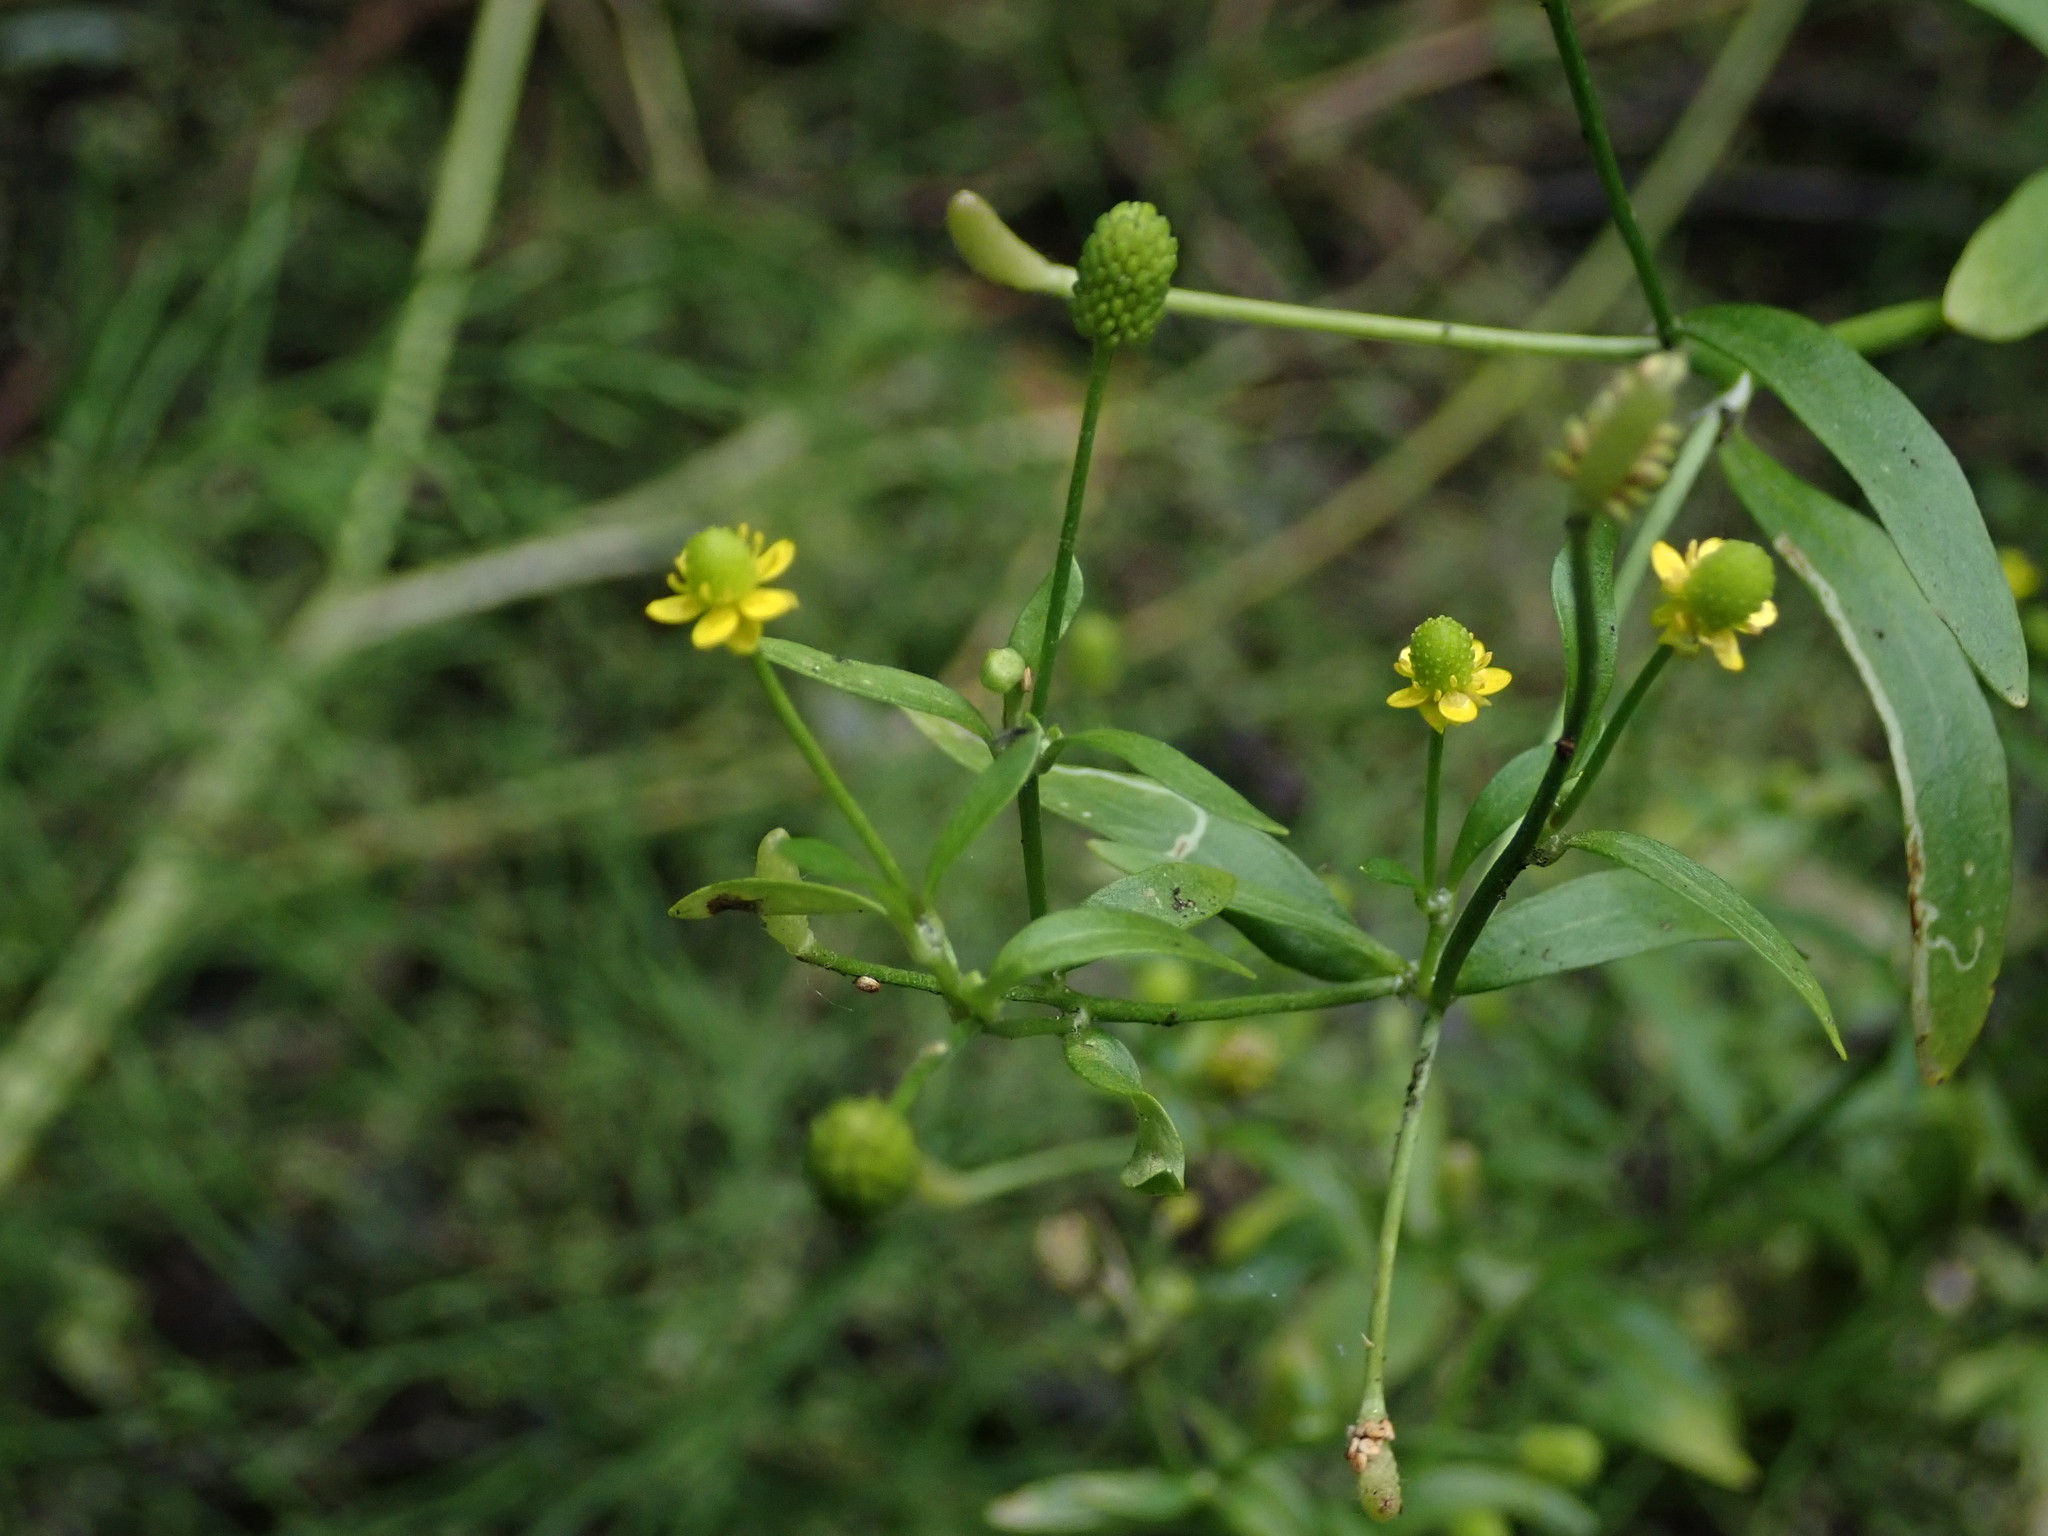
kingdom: Plantae
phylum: Tracheophyta
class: Magnoliopsida
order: Ranunculales
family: Ranunculaceae
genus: Ranunculus
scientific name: Ranunculus sceleratus
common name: Celery-leaved buttercup
